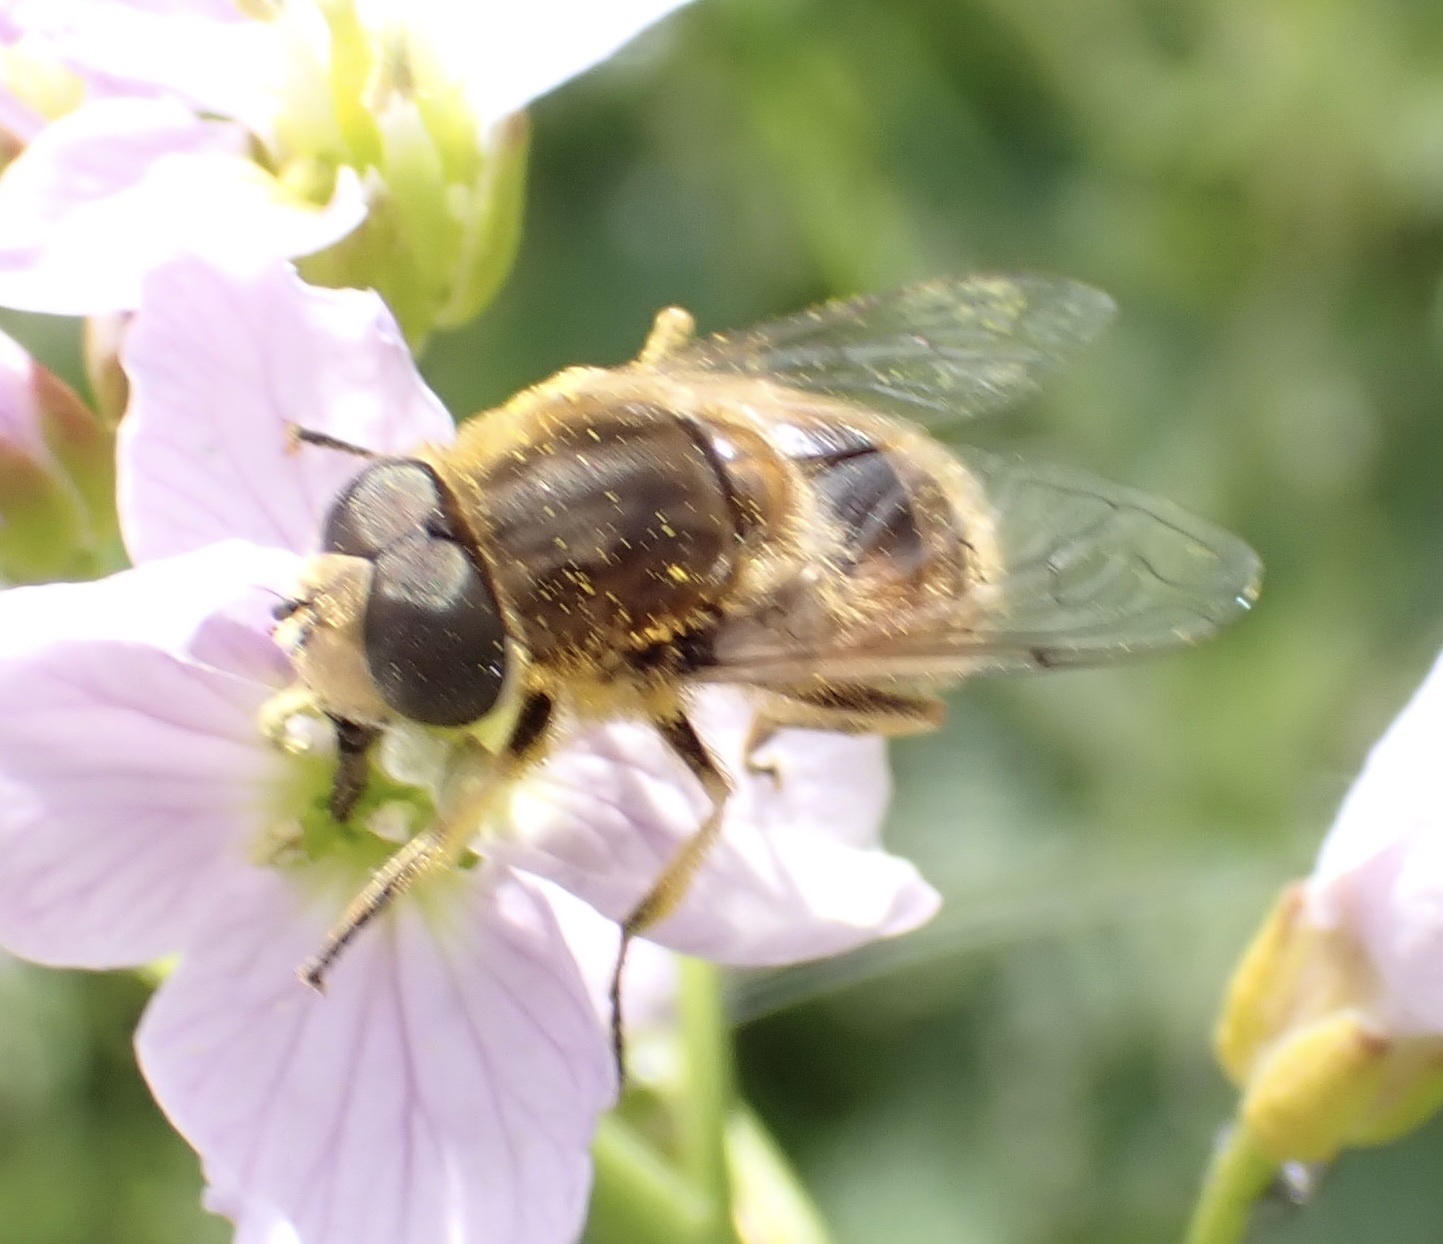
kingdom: Animalia
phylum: Arthropoda
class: Insecta
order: Diptera
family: Syrphidae
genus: Eristalis
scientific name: Eristalis arbustorum
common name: Hover fly
